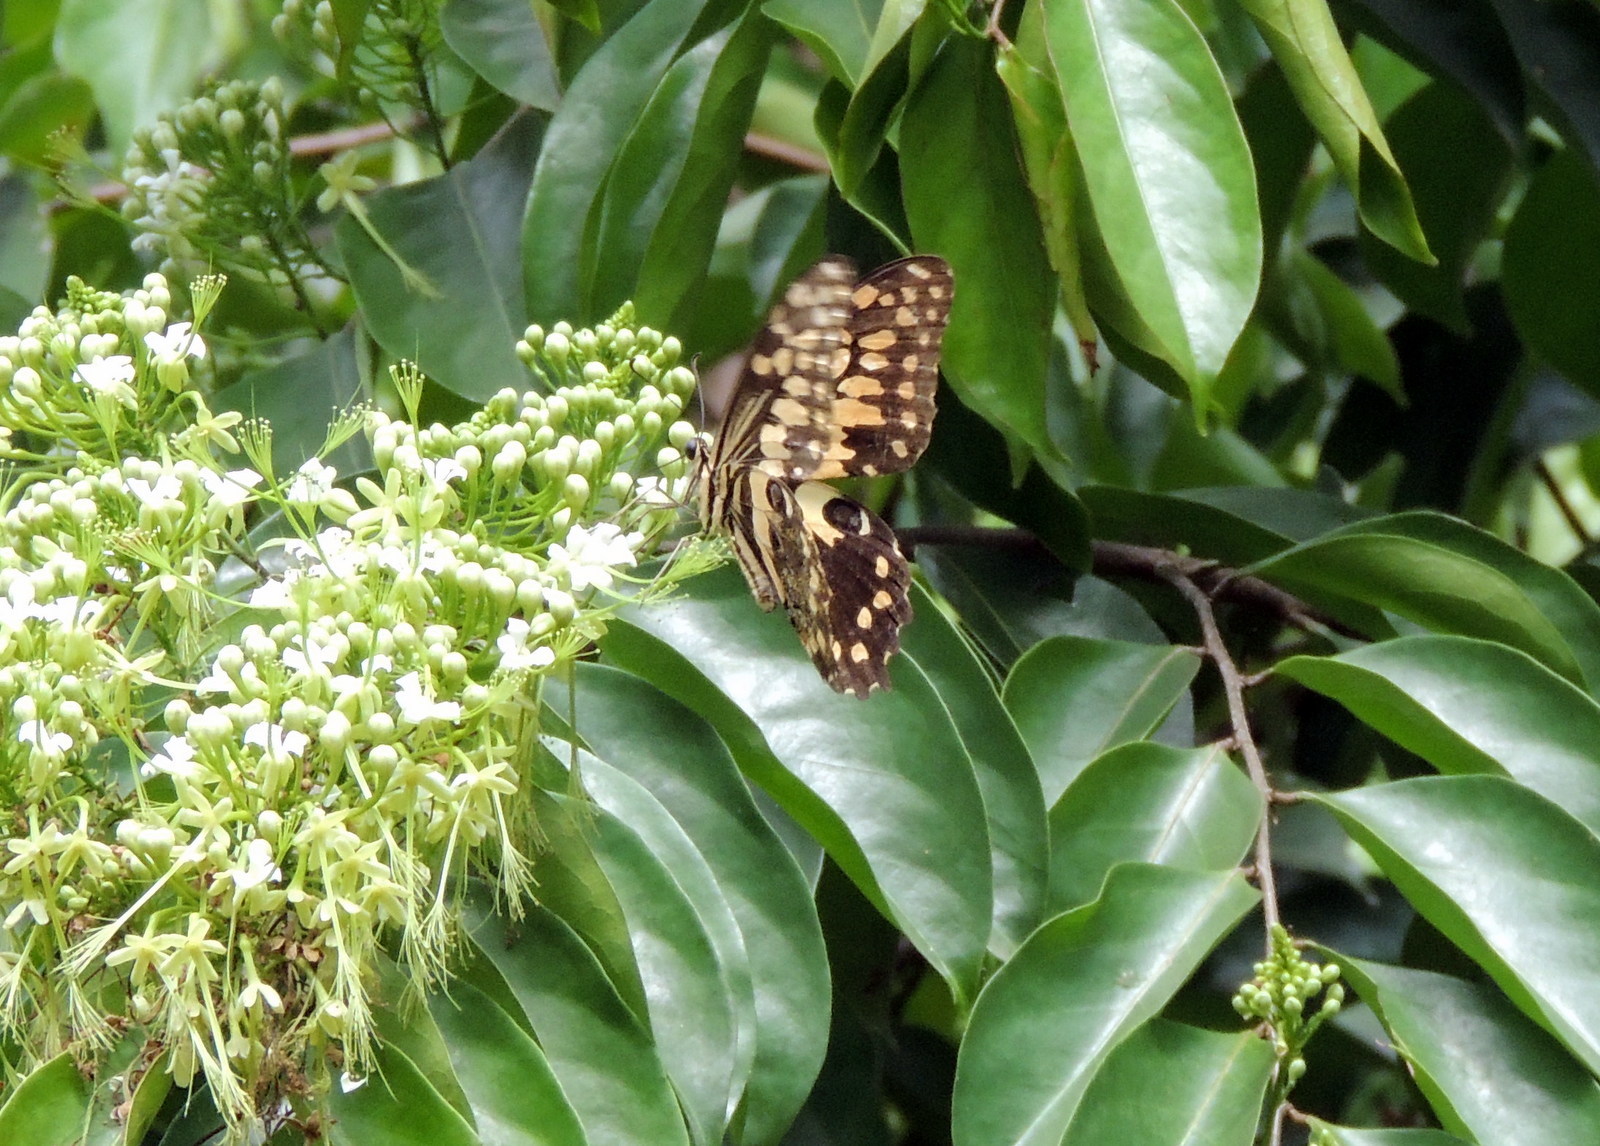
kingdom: Animalia
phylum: Arthropoda
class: Insecta
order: Lepidoptera
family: Papilionidae
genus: Papilio
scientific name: Papilio demodocus
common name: Christmas butterfly
